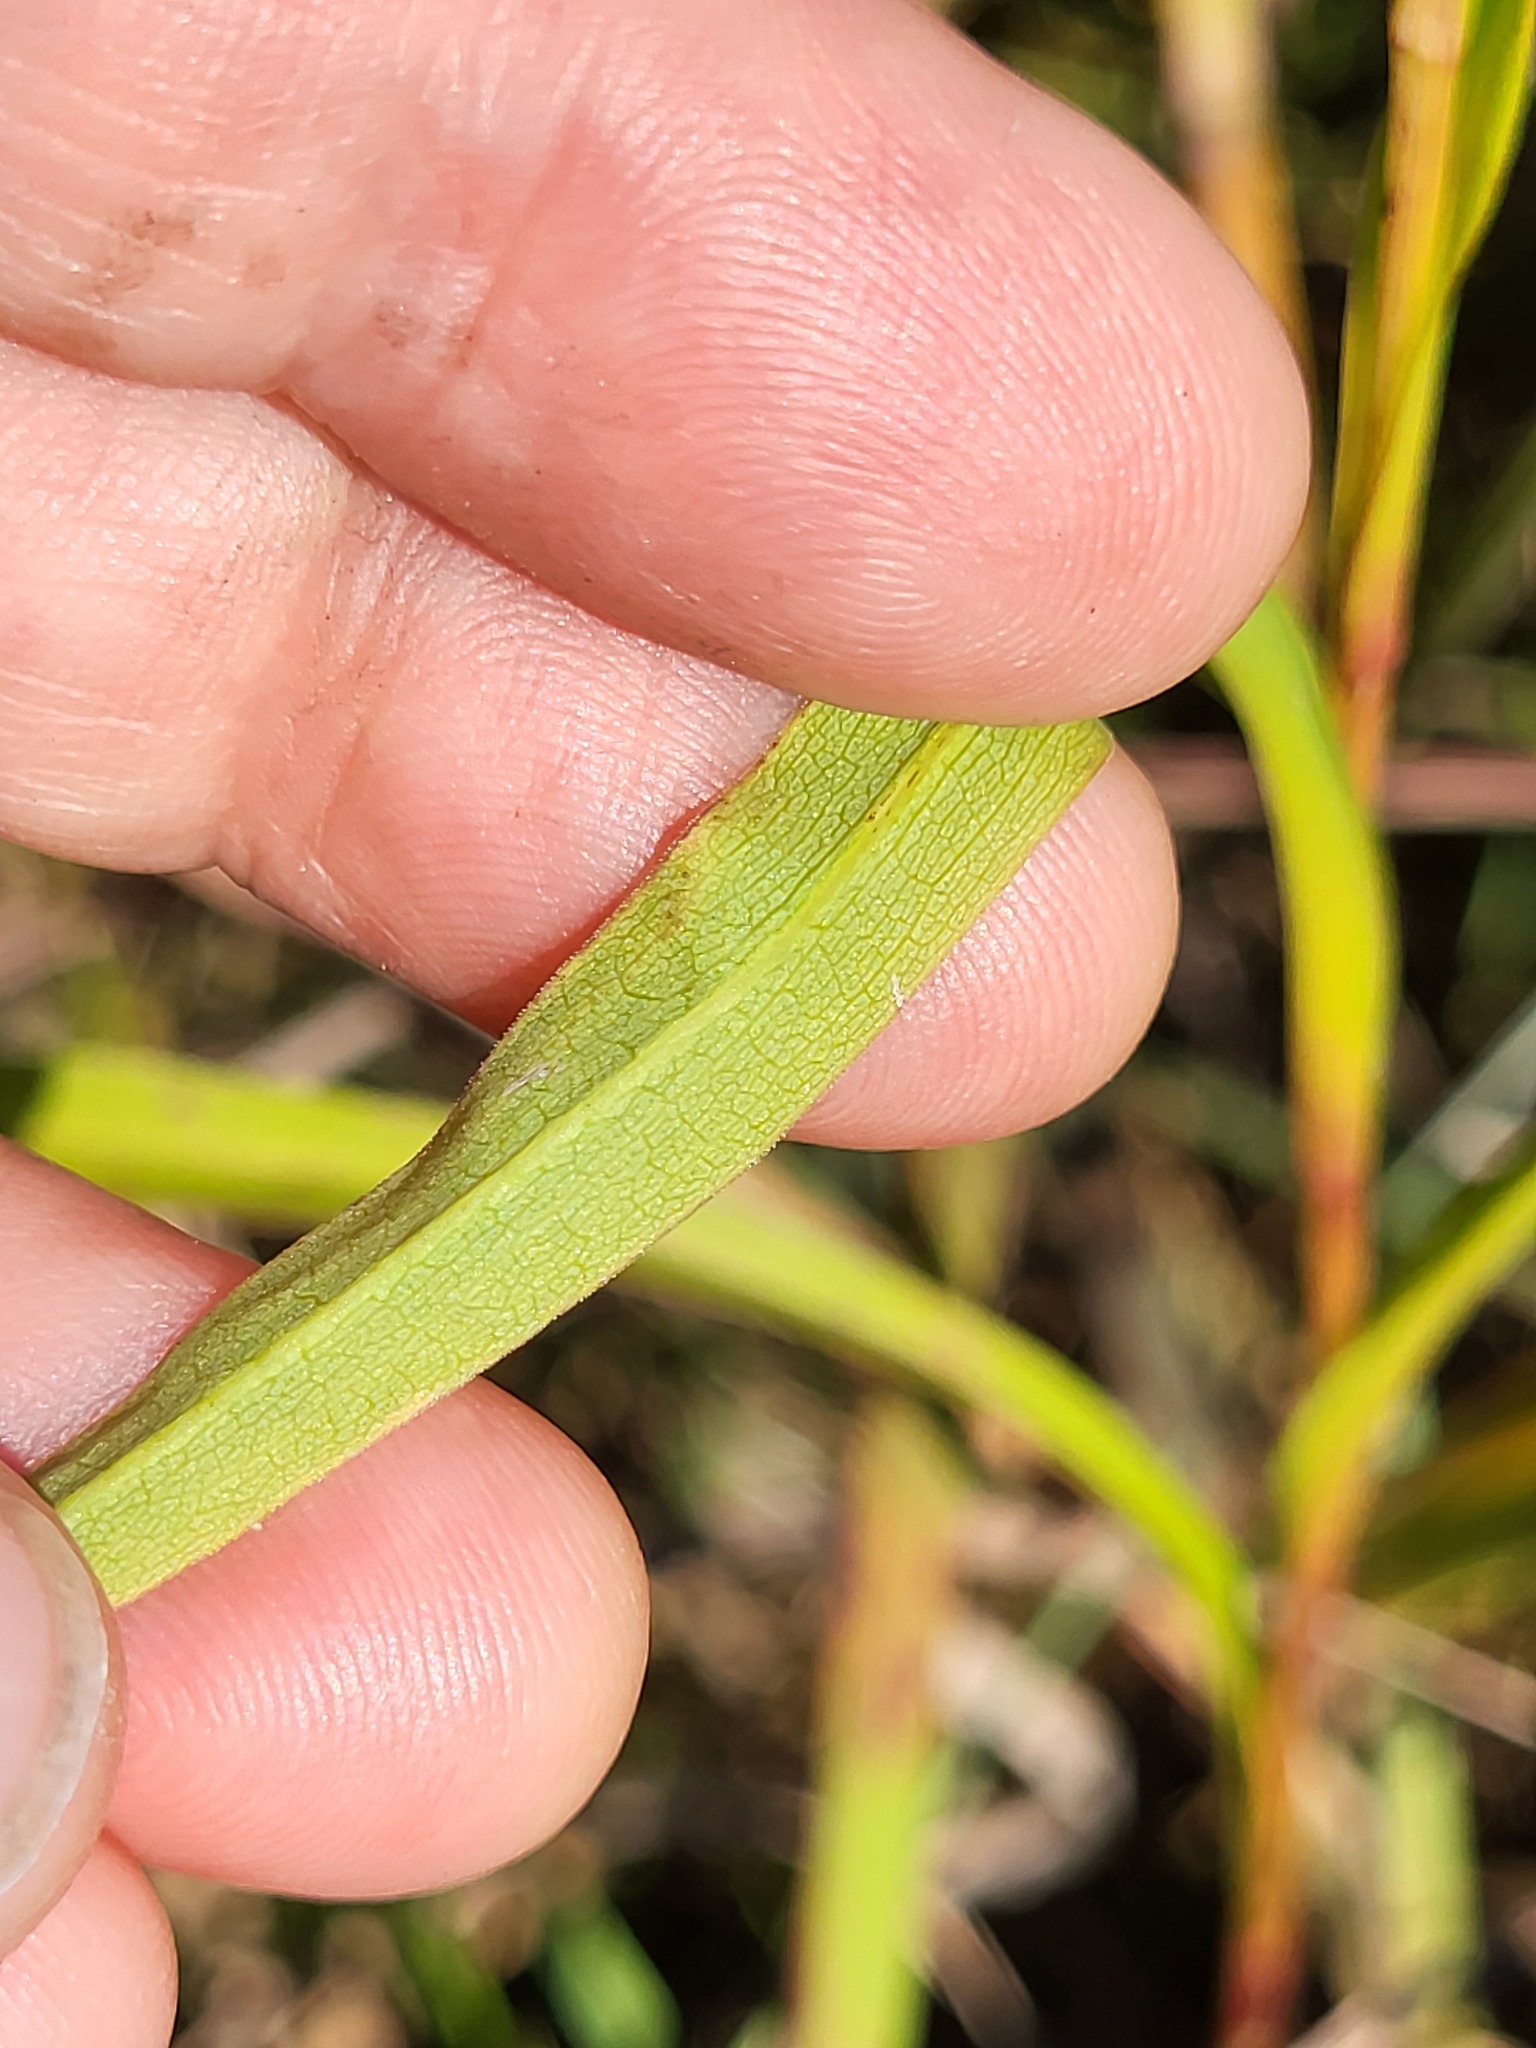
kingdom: Plantae
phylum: Tracheophyta
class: Magnoliopsida
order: Asterales
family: Asteraceae
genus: Solidago
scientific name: Solidago riddellii
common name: Riddell's goldenrod
